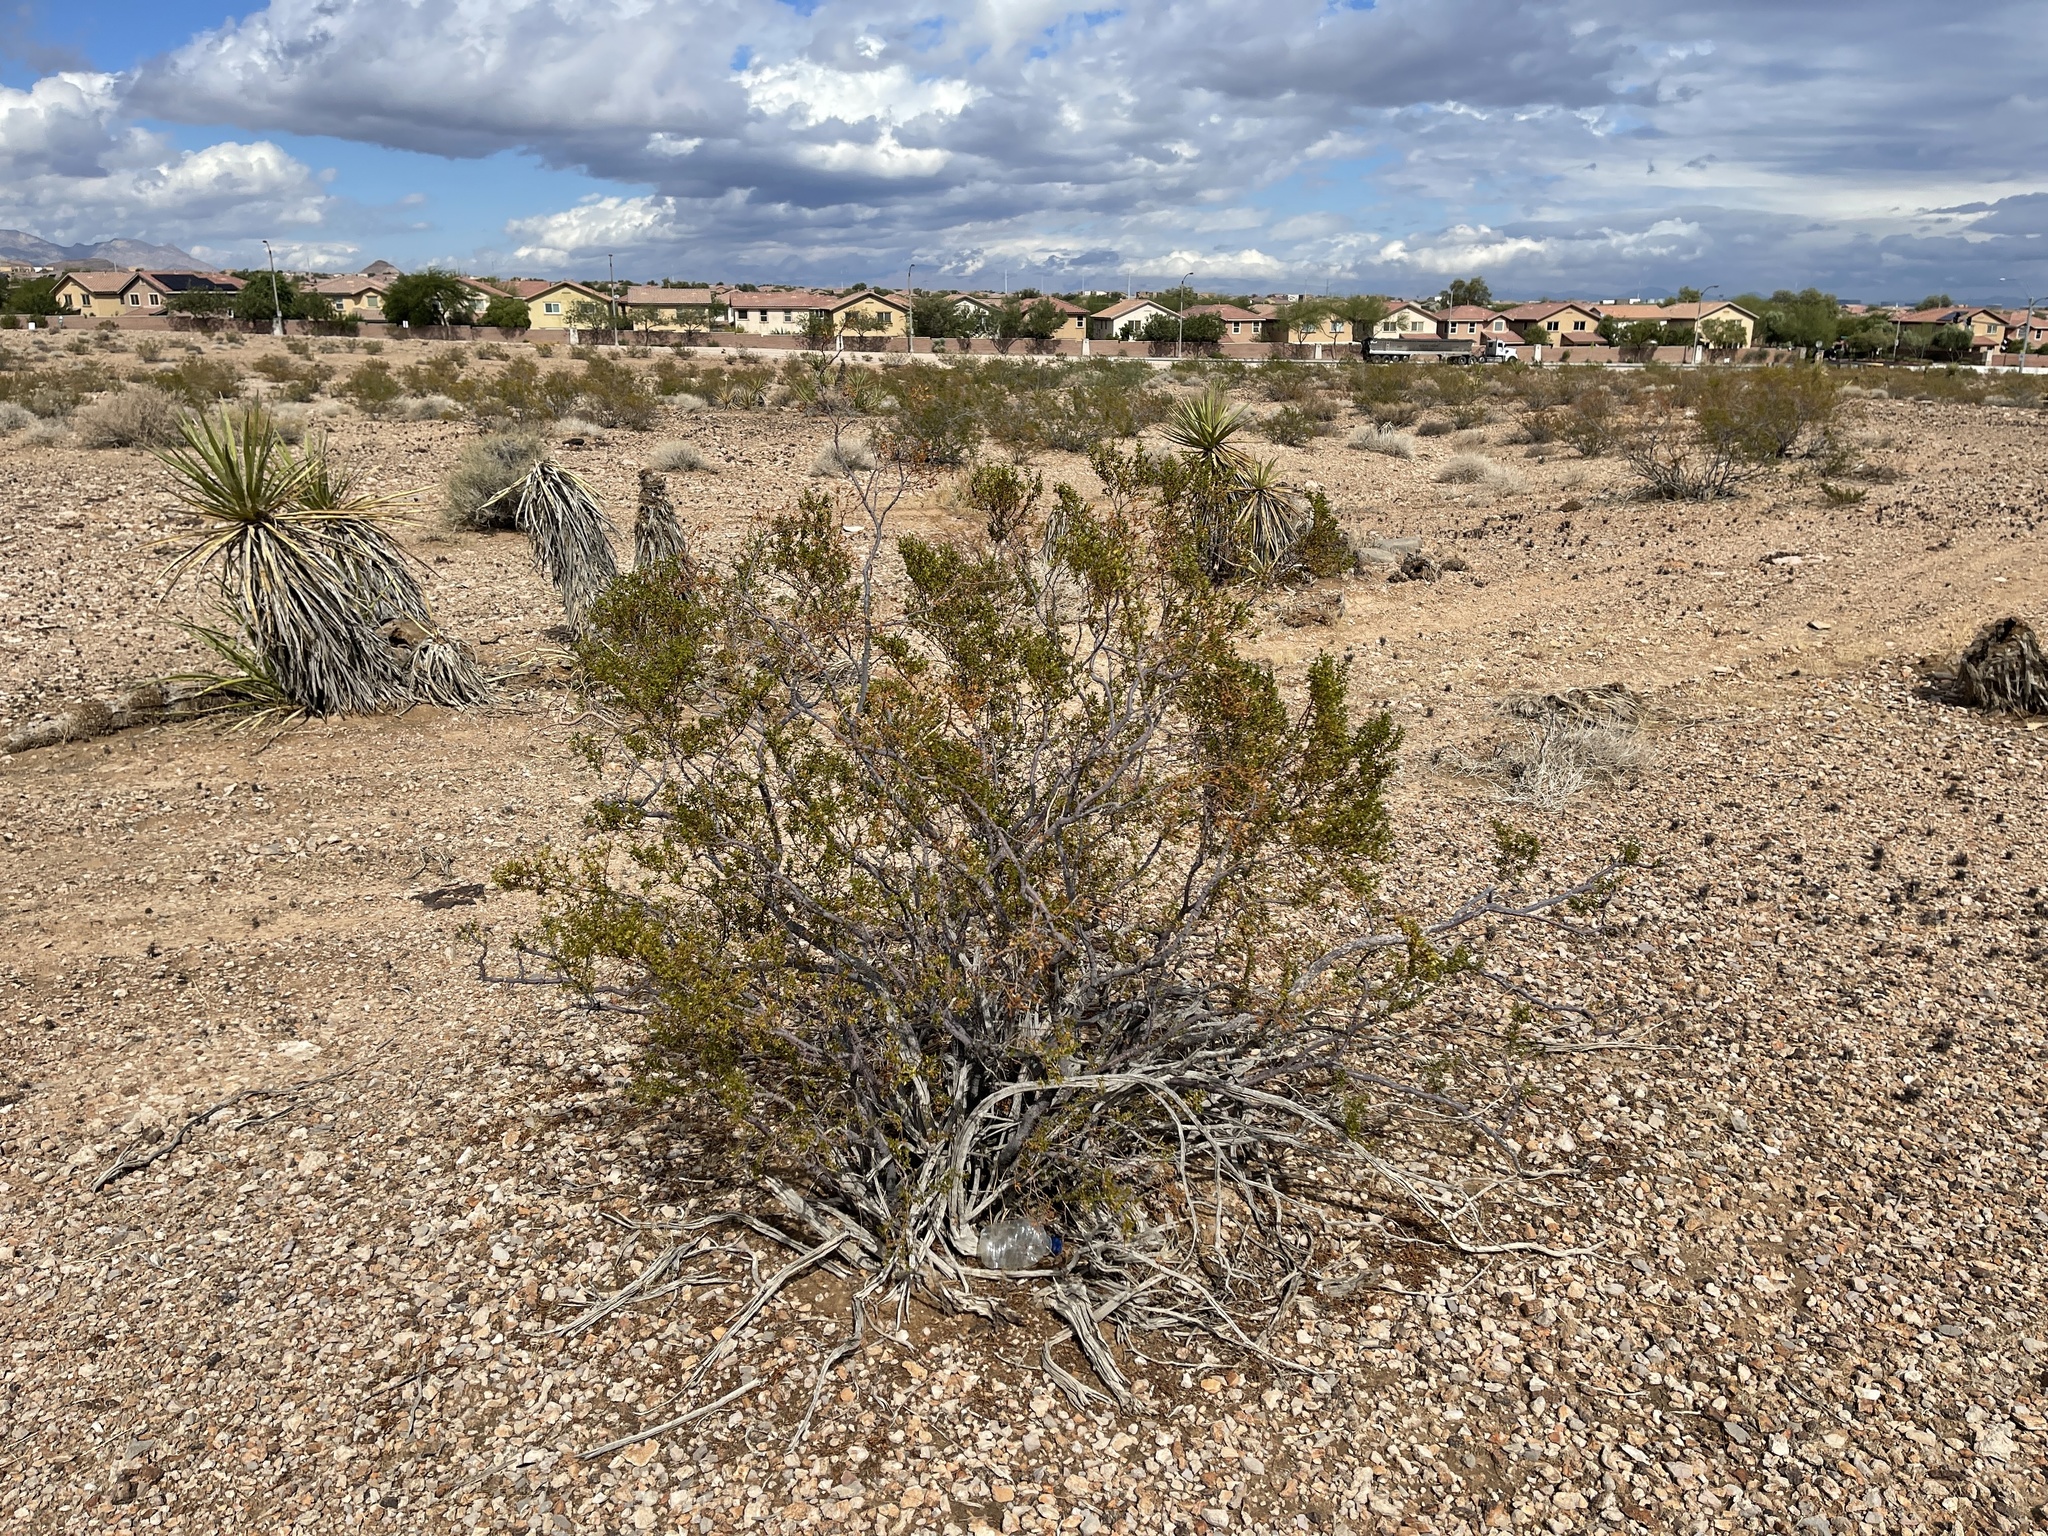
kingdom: Plantae
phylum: Tracheophyta
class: Magnoliopsida
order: Zygophyllales
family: Zygophyllaceae
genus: Larrea
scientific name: Larrea tridentata
